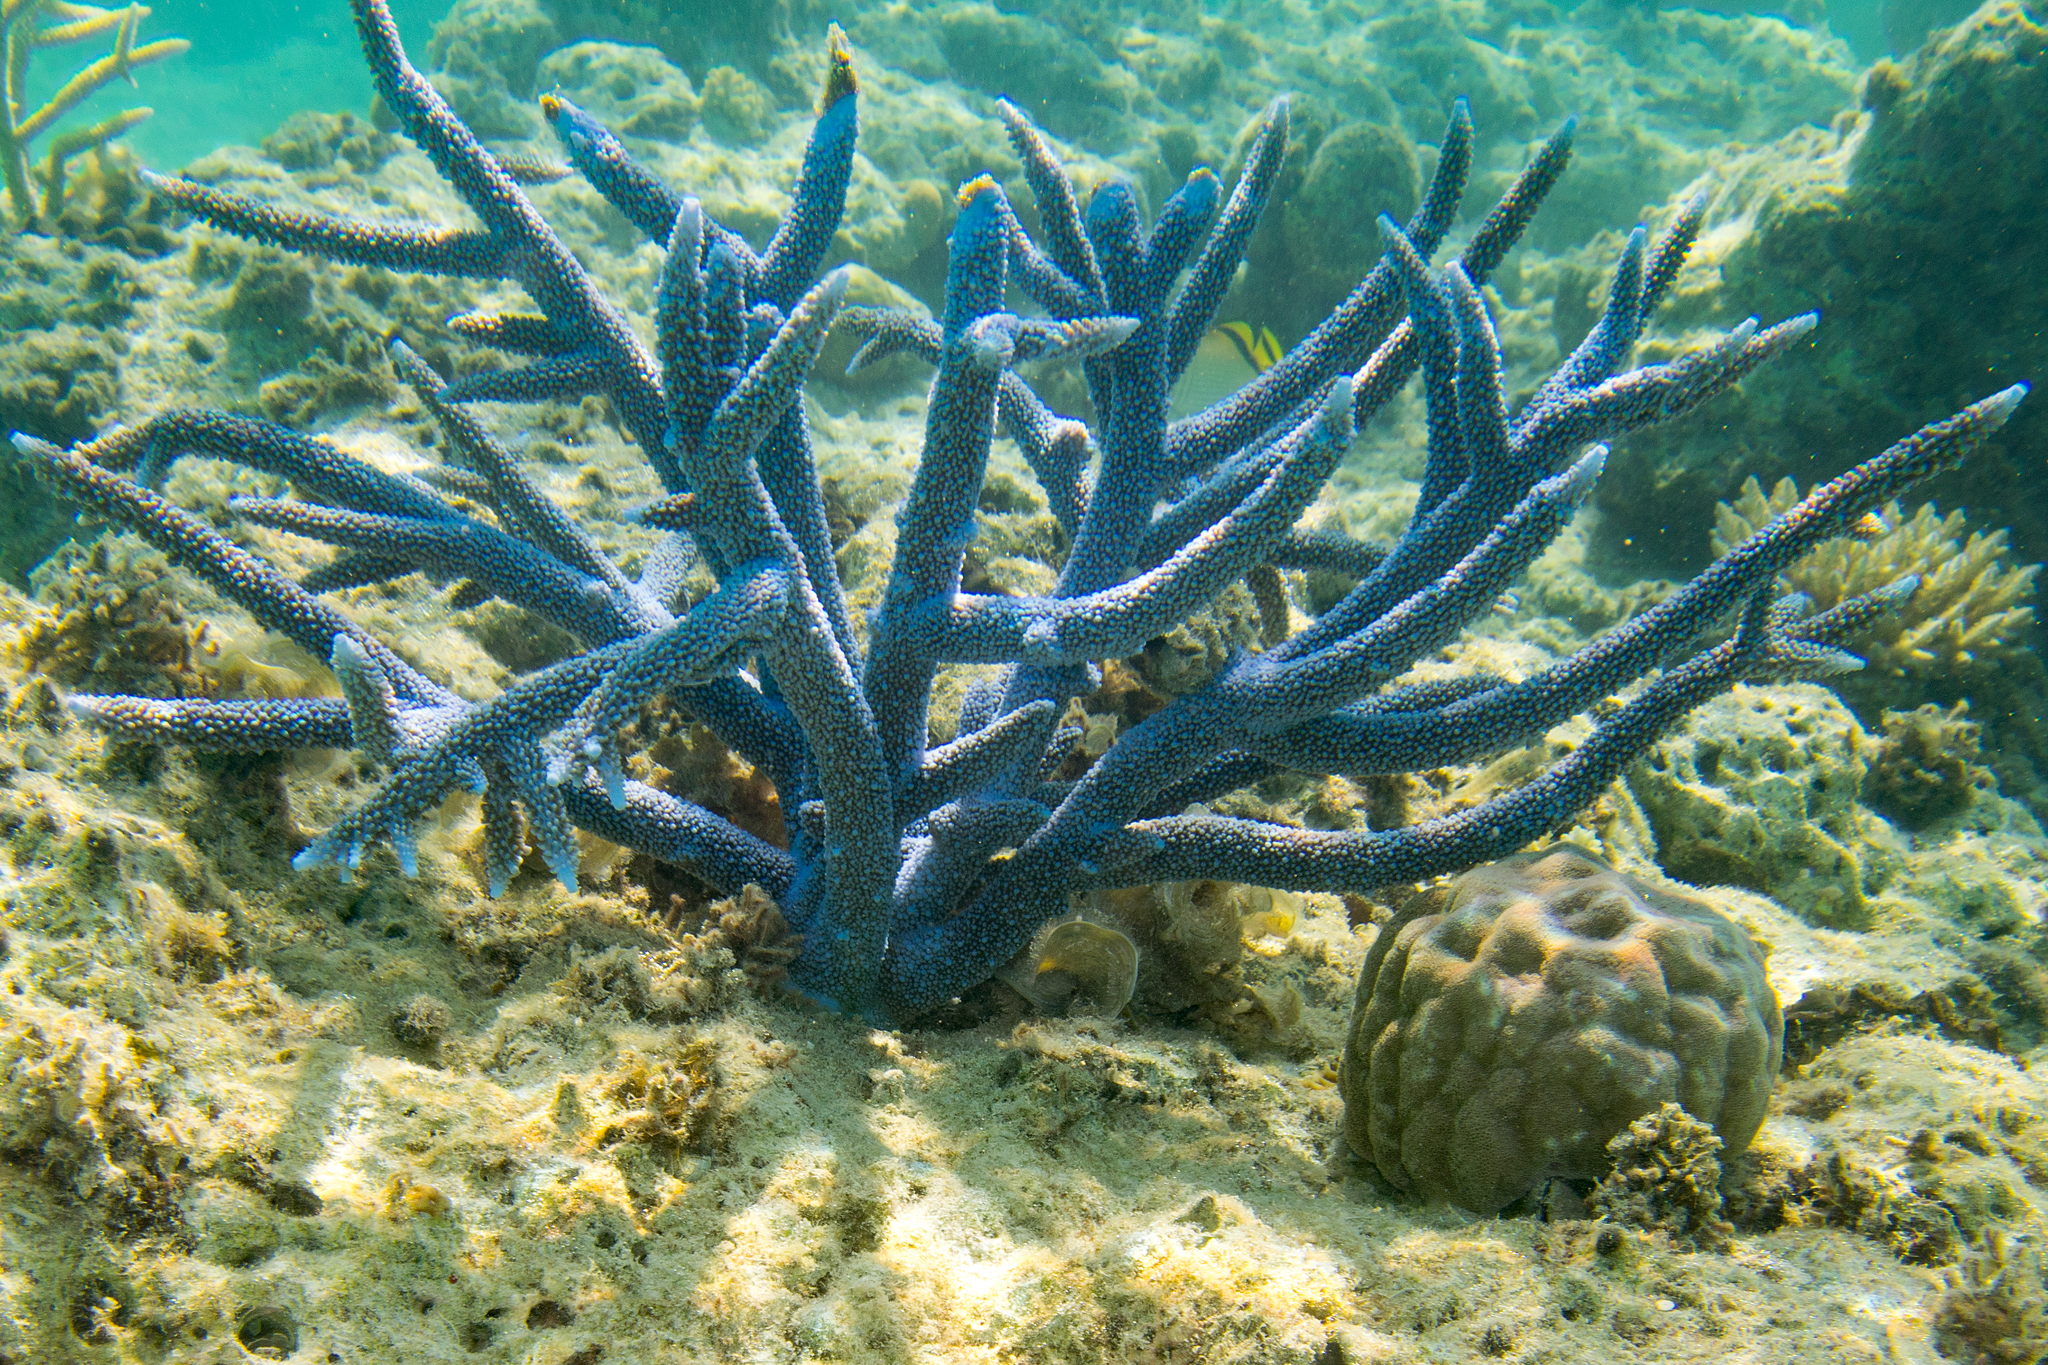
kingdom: Animalia
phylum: Cnidaria
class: Anthozoa
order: Scleractinia
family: Acroporidae
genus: Acropora
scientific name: Acropora muricata
